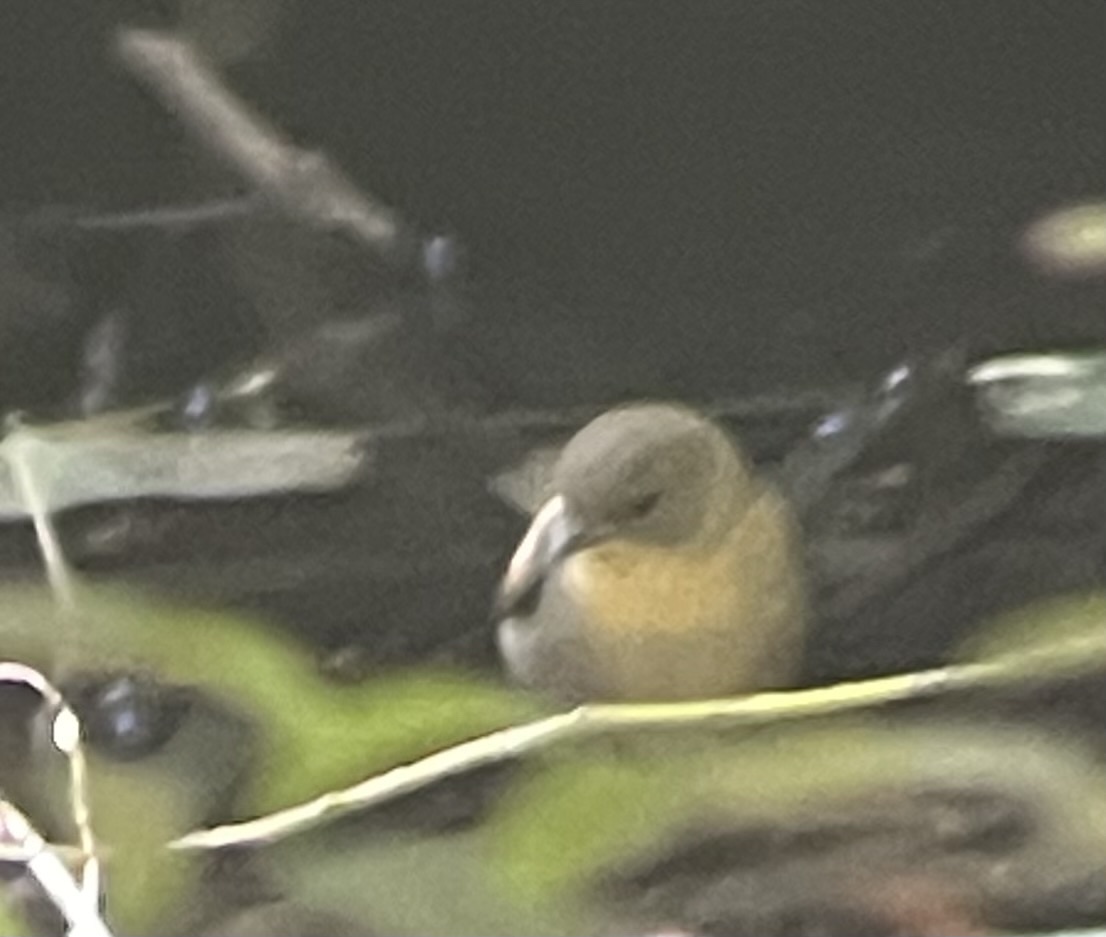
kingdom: Animalia
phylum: Chordata
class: Aves
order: Passeriformes
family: Parulidae
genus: Geothlypis
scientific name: Geothlypis trichas
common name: Common yellowthroat
